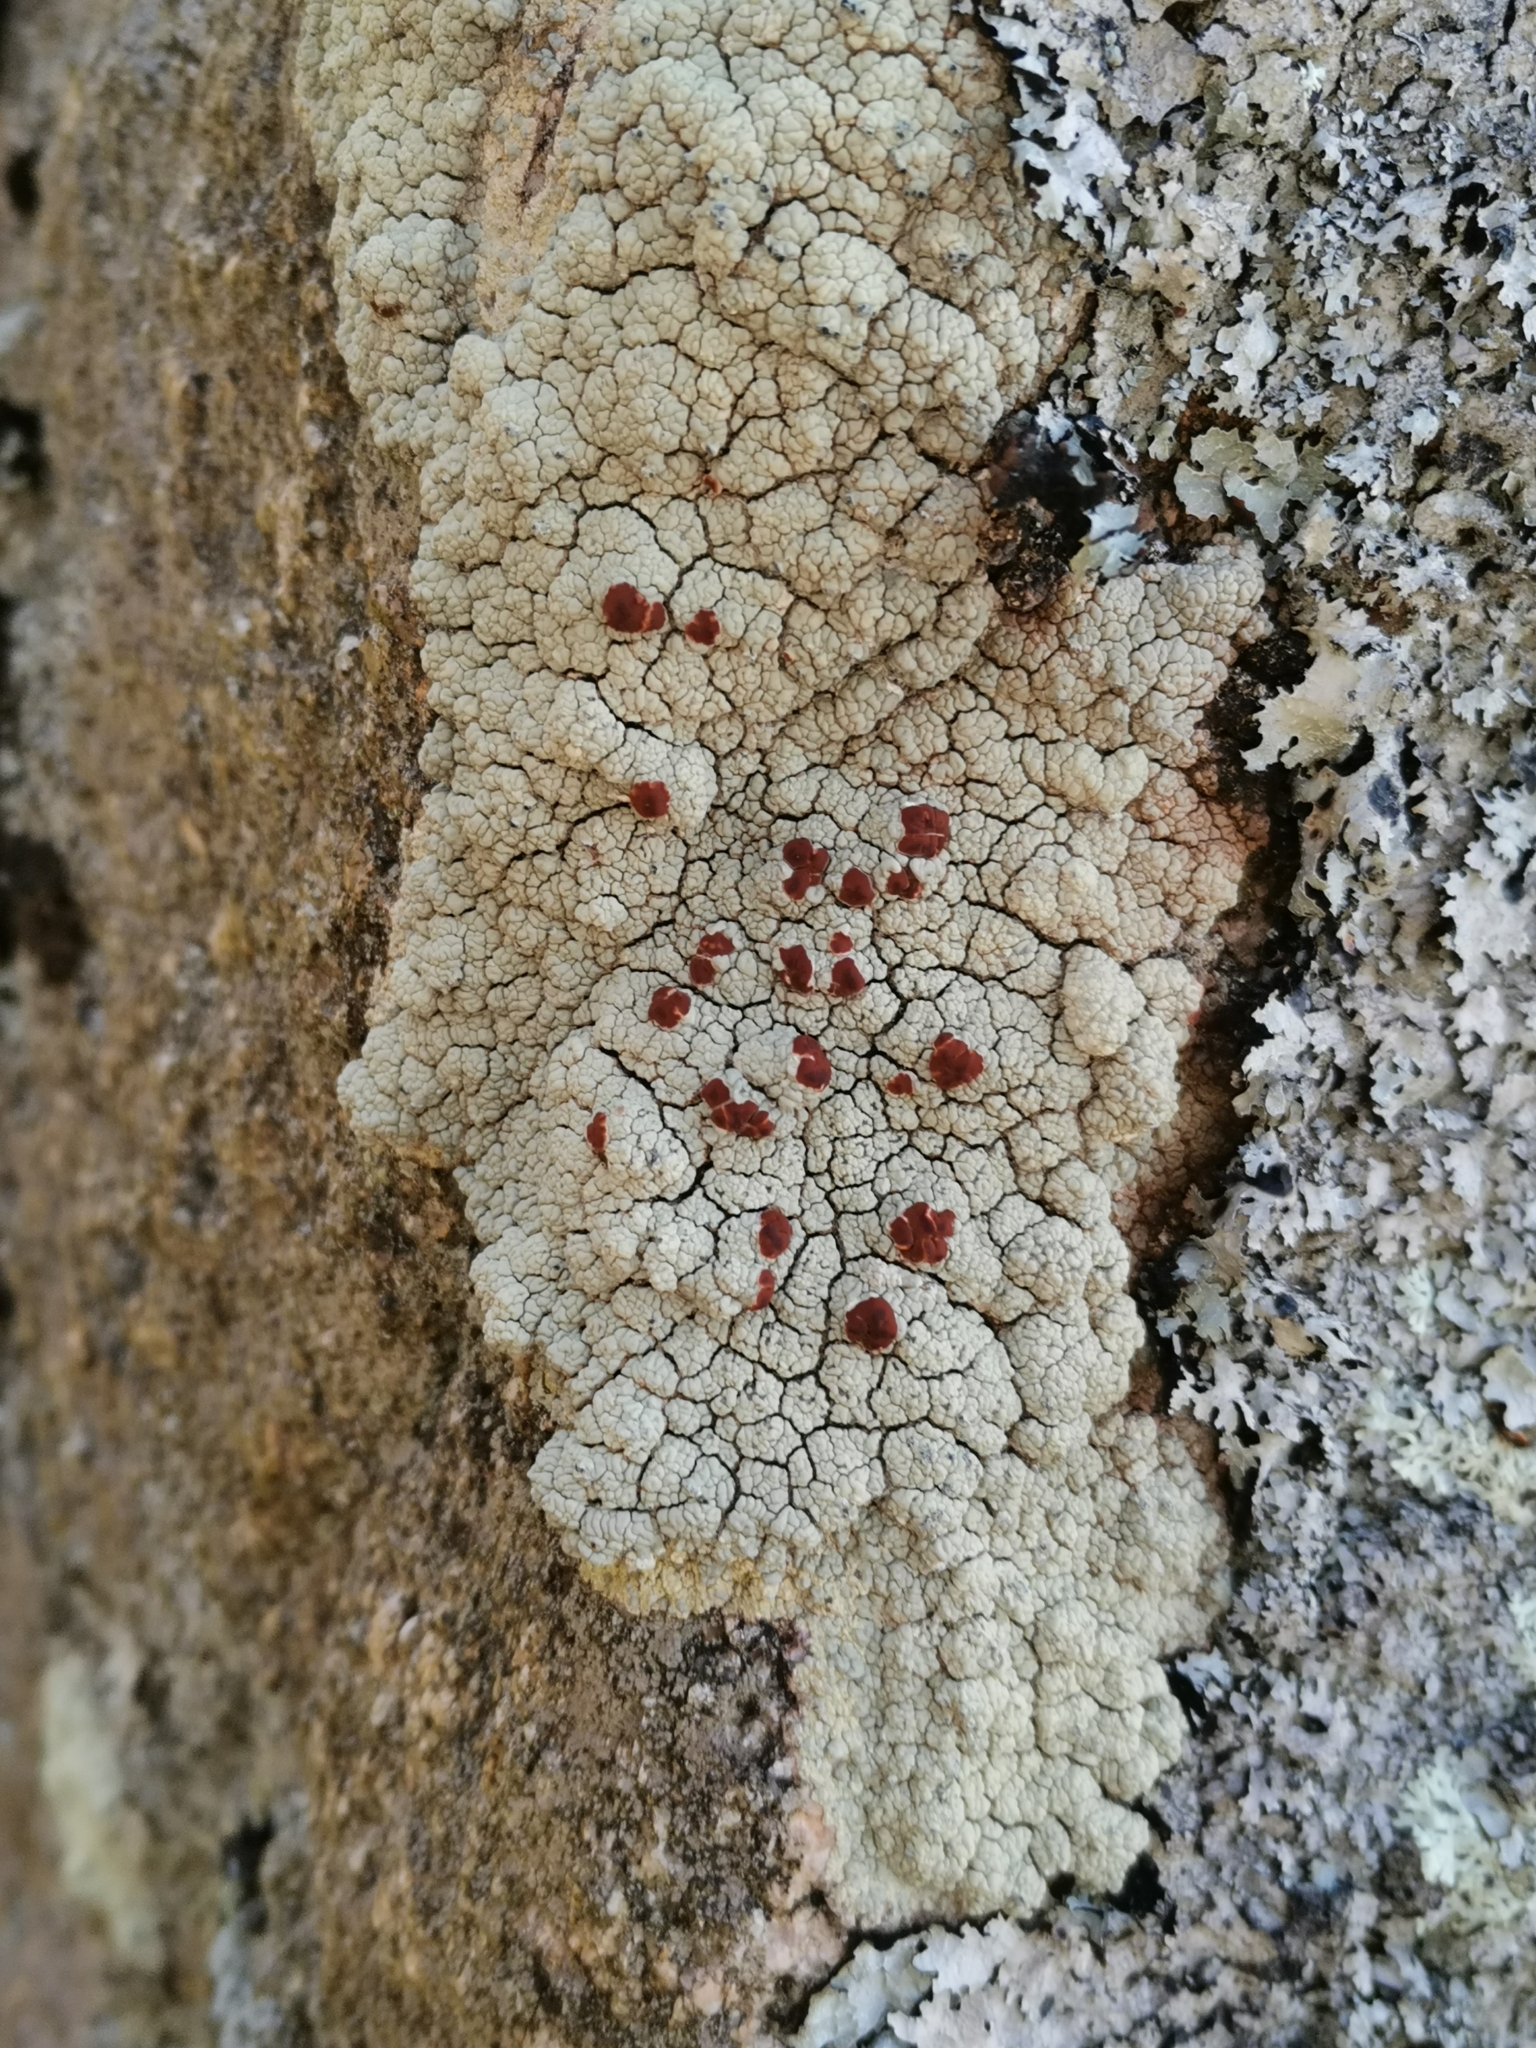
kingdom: Fungi
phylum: Ascomycota
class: Lecanoromycetes
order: Umbilicariales
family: Ophioparmaceae
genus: Ophioparma
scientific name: Ophioparma ventosa
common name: Blood-spot
